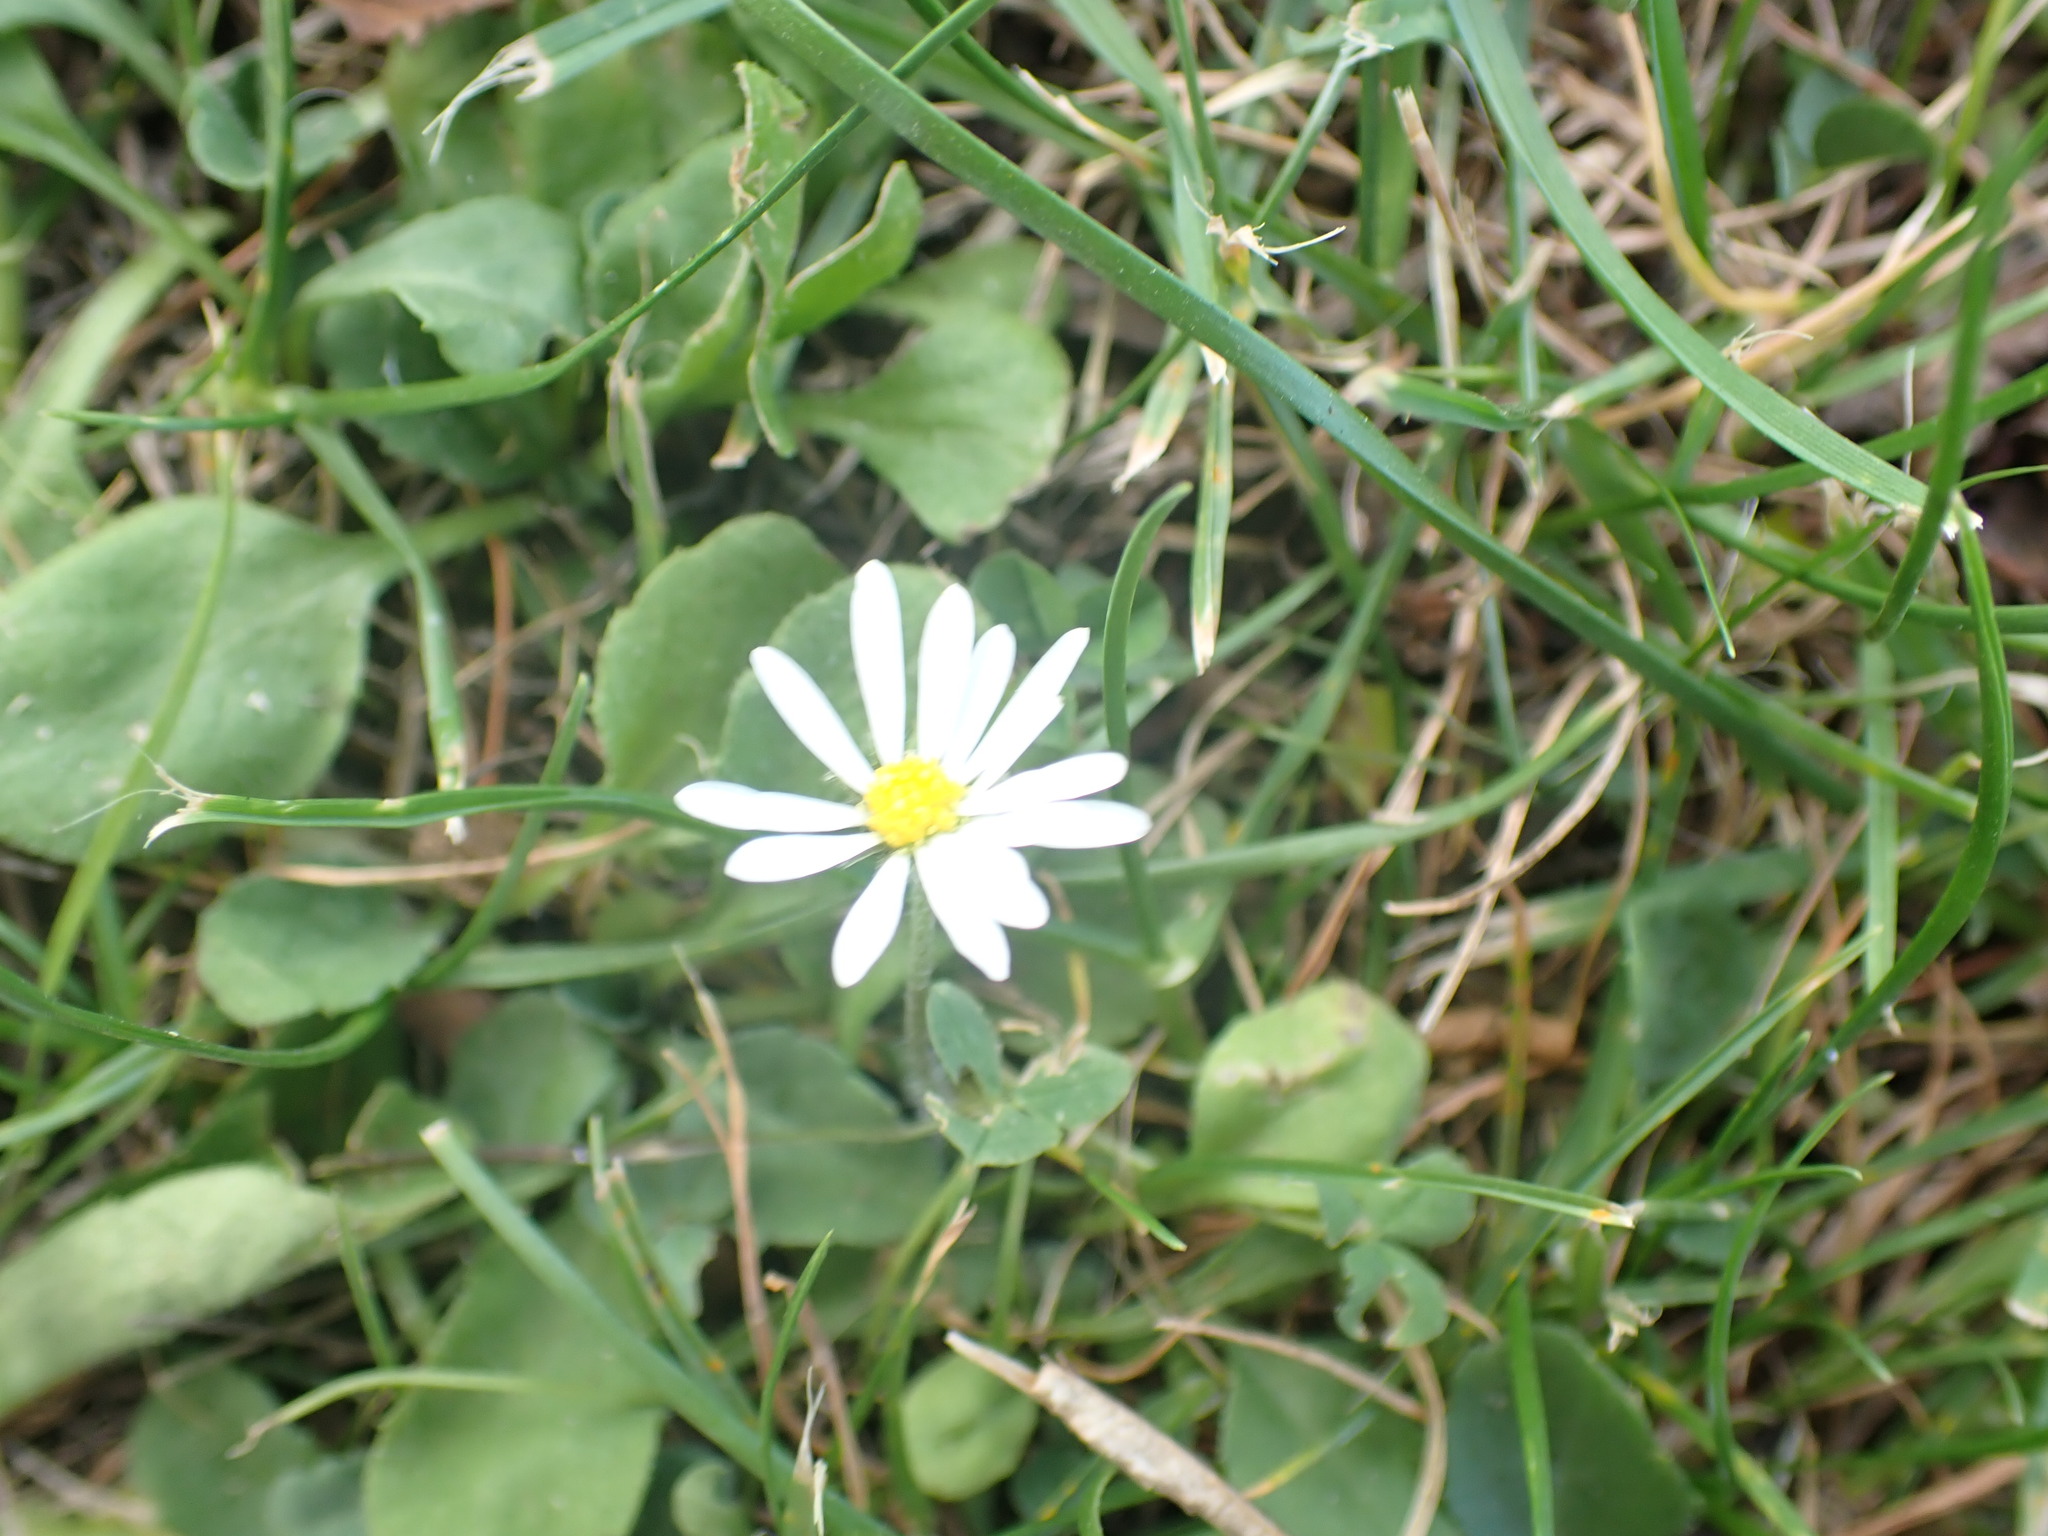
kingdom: Plantae
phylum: Tracheophyta
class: Magnoliopsida
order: Asterales
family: Asteraceae
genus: Bellis
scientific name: Bellis perennis
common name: Lawndaisy
